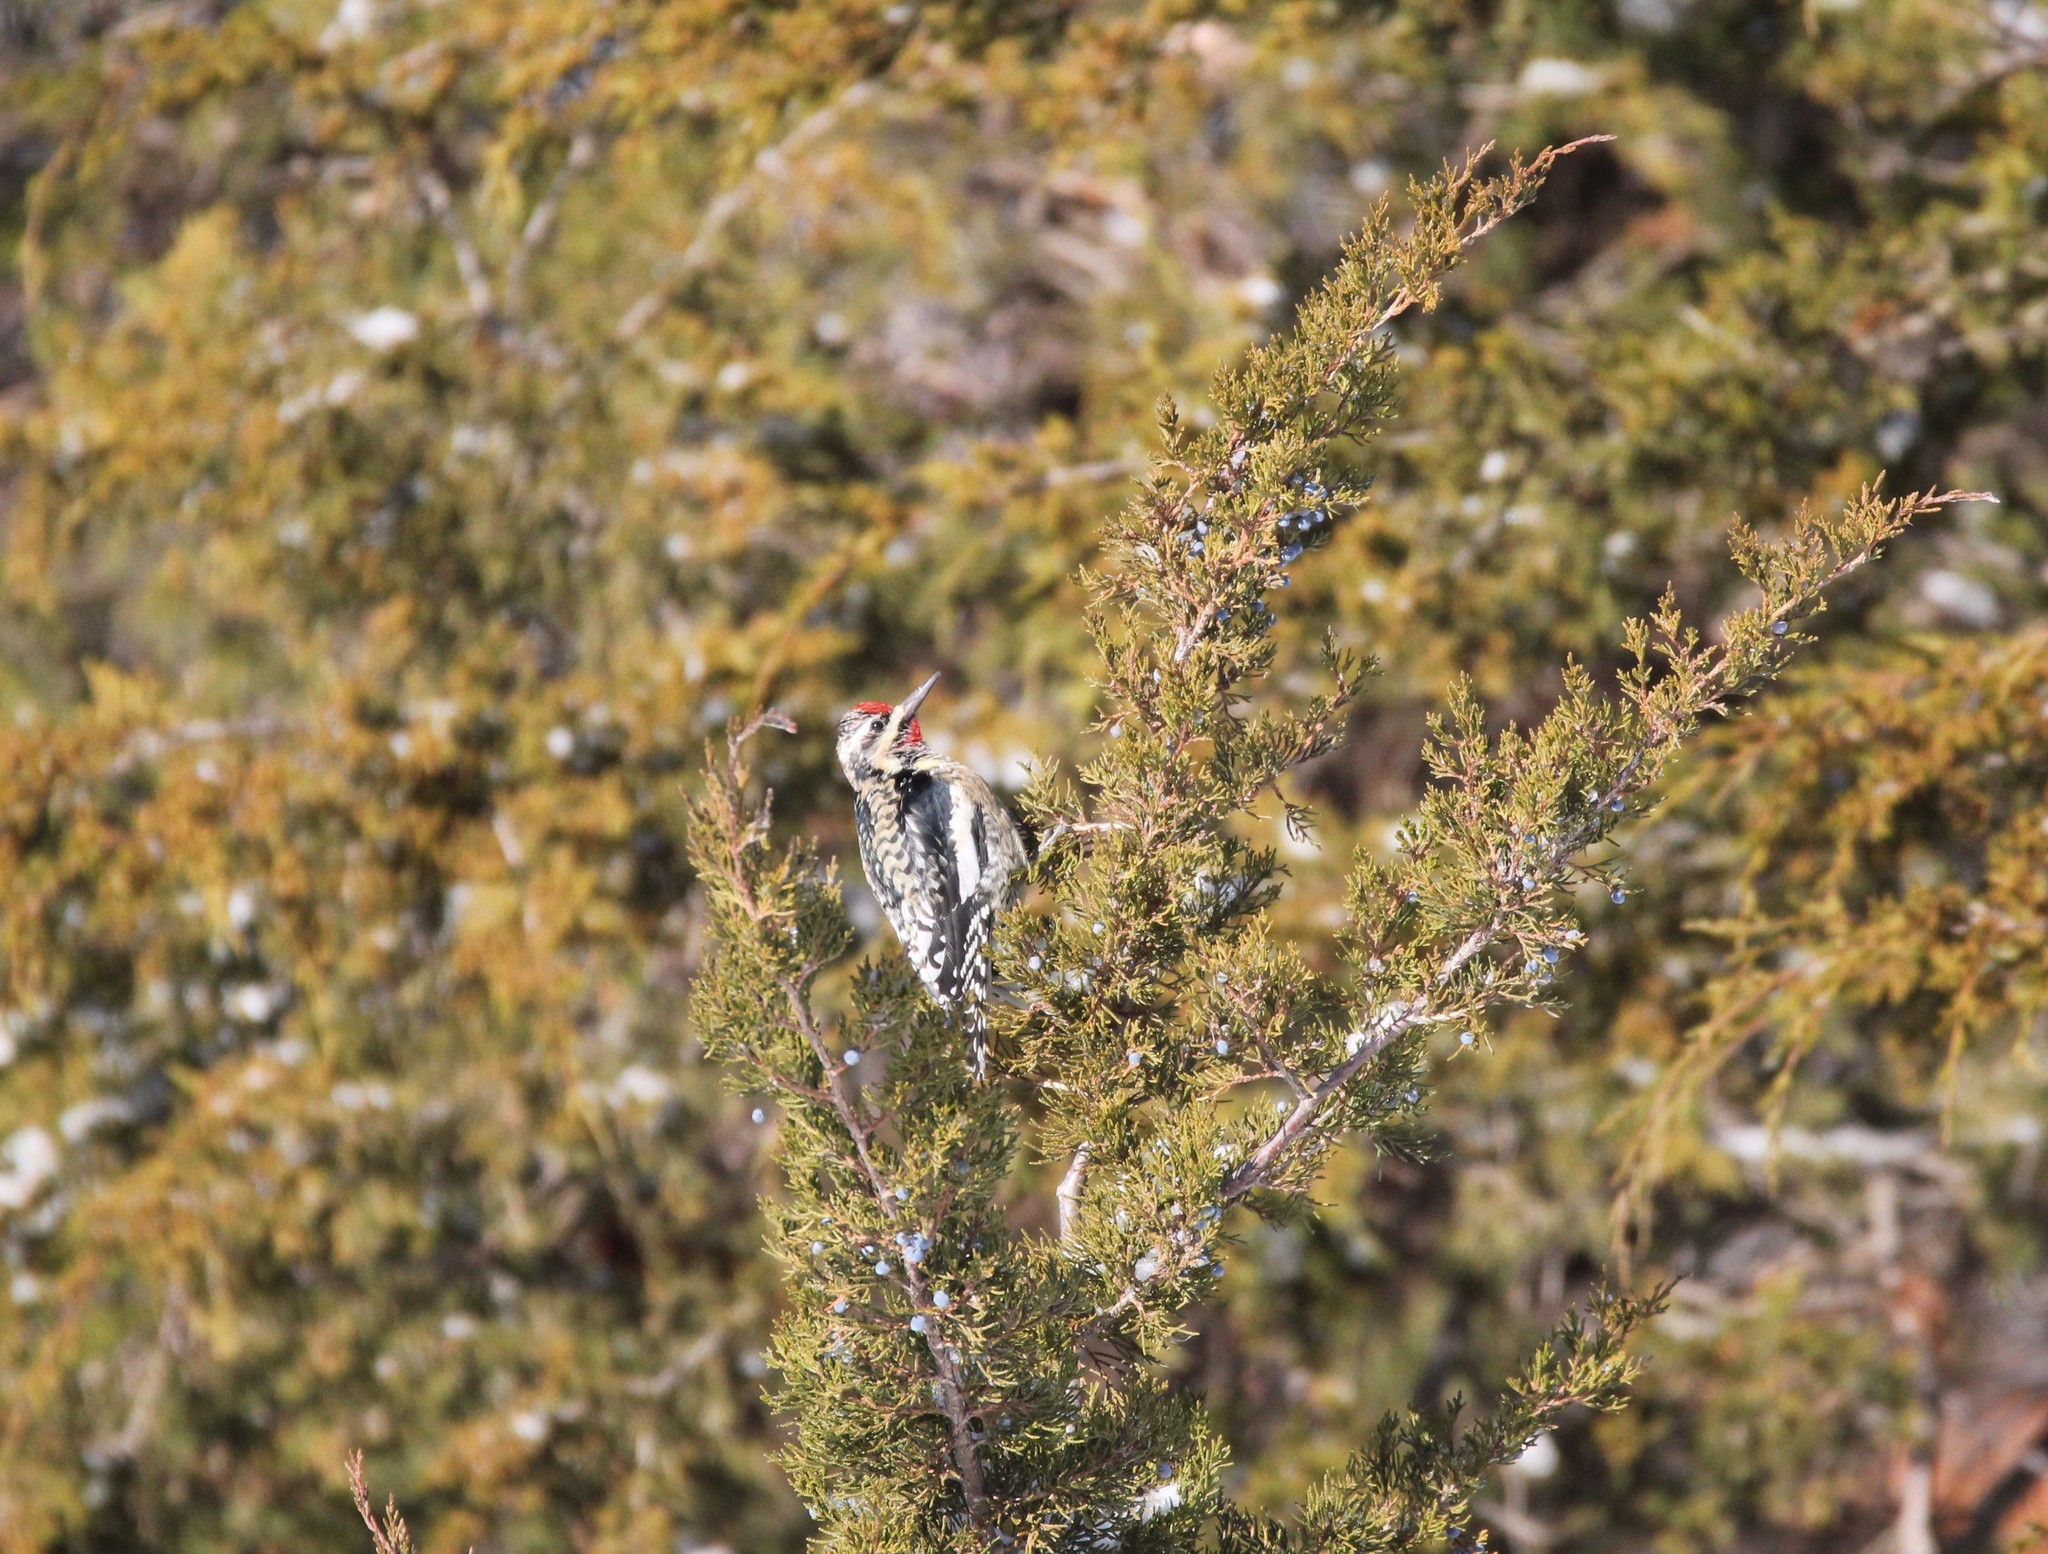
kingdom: Animalia
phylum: Chordata
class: Aves
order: Piciformes
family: Picidae
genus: Sphyrapicus
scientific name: Sphyrapicus varius
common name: Yellow-bellied sapsucker
